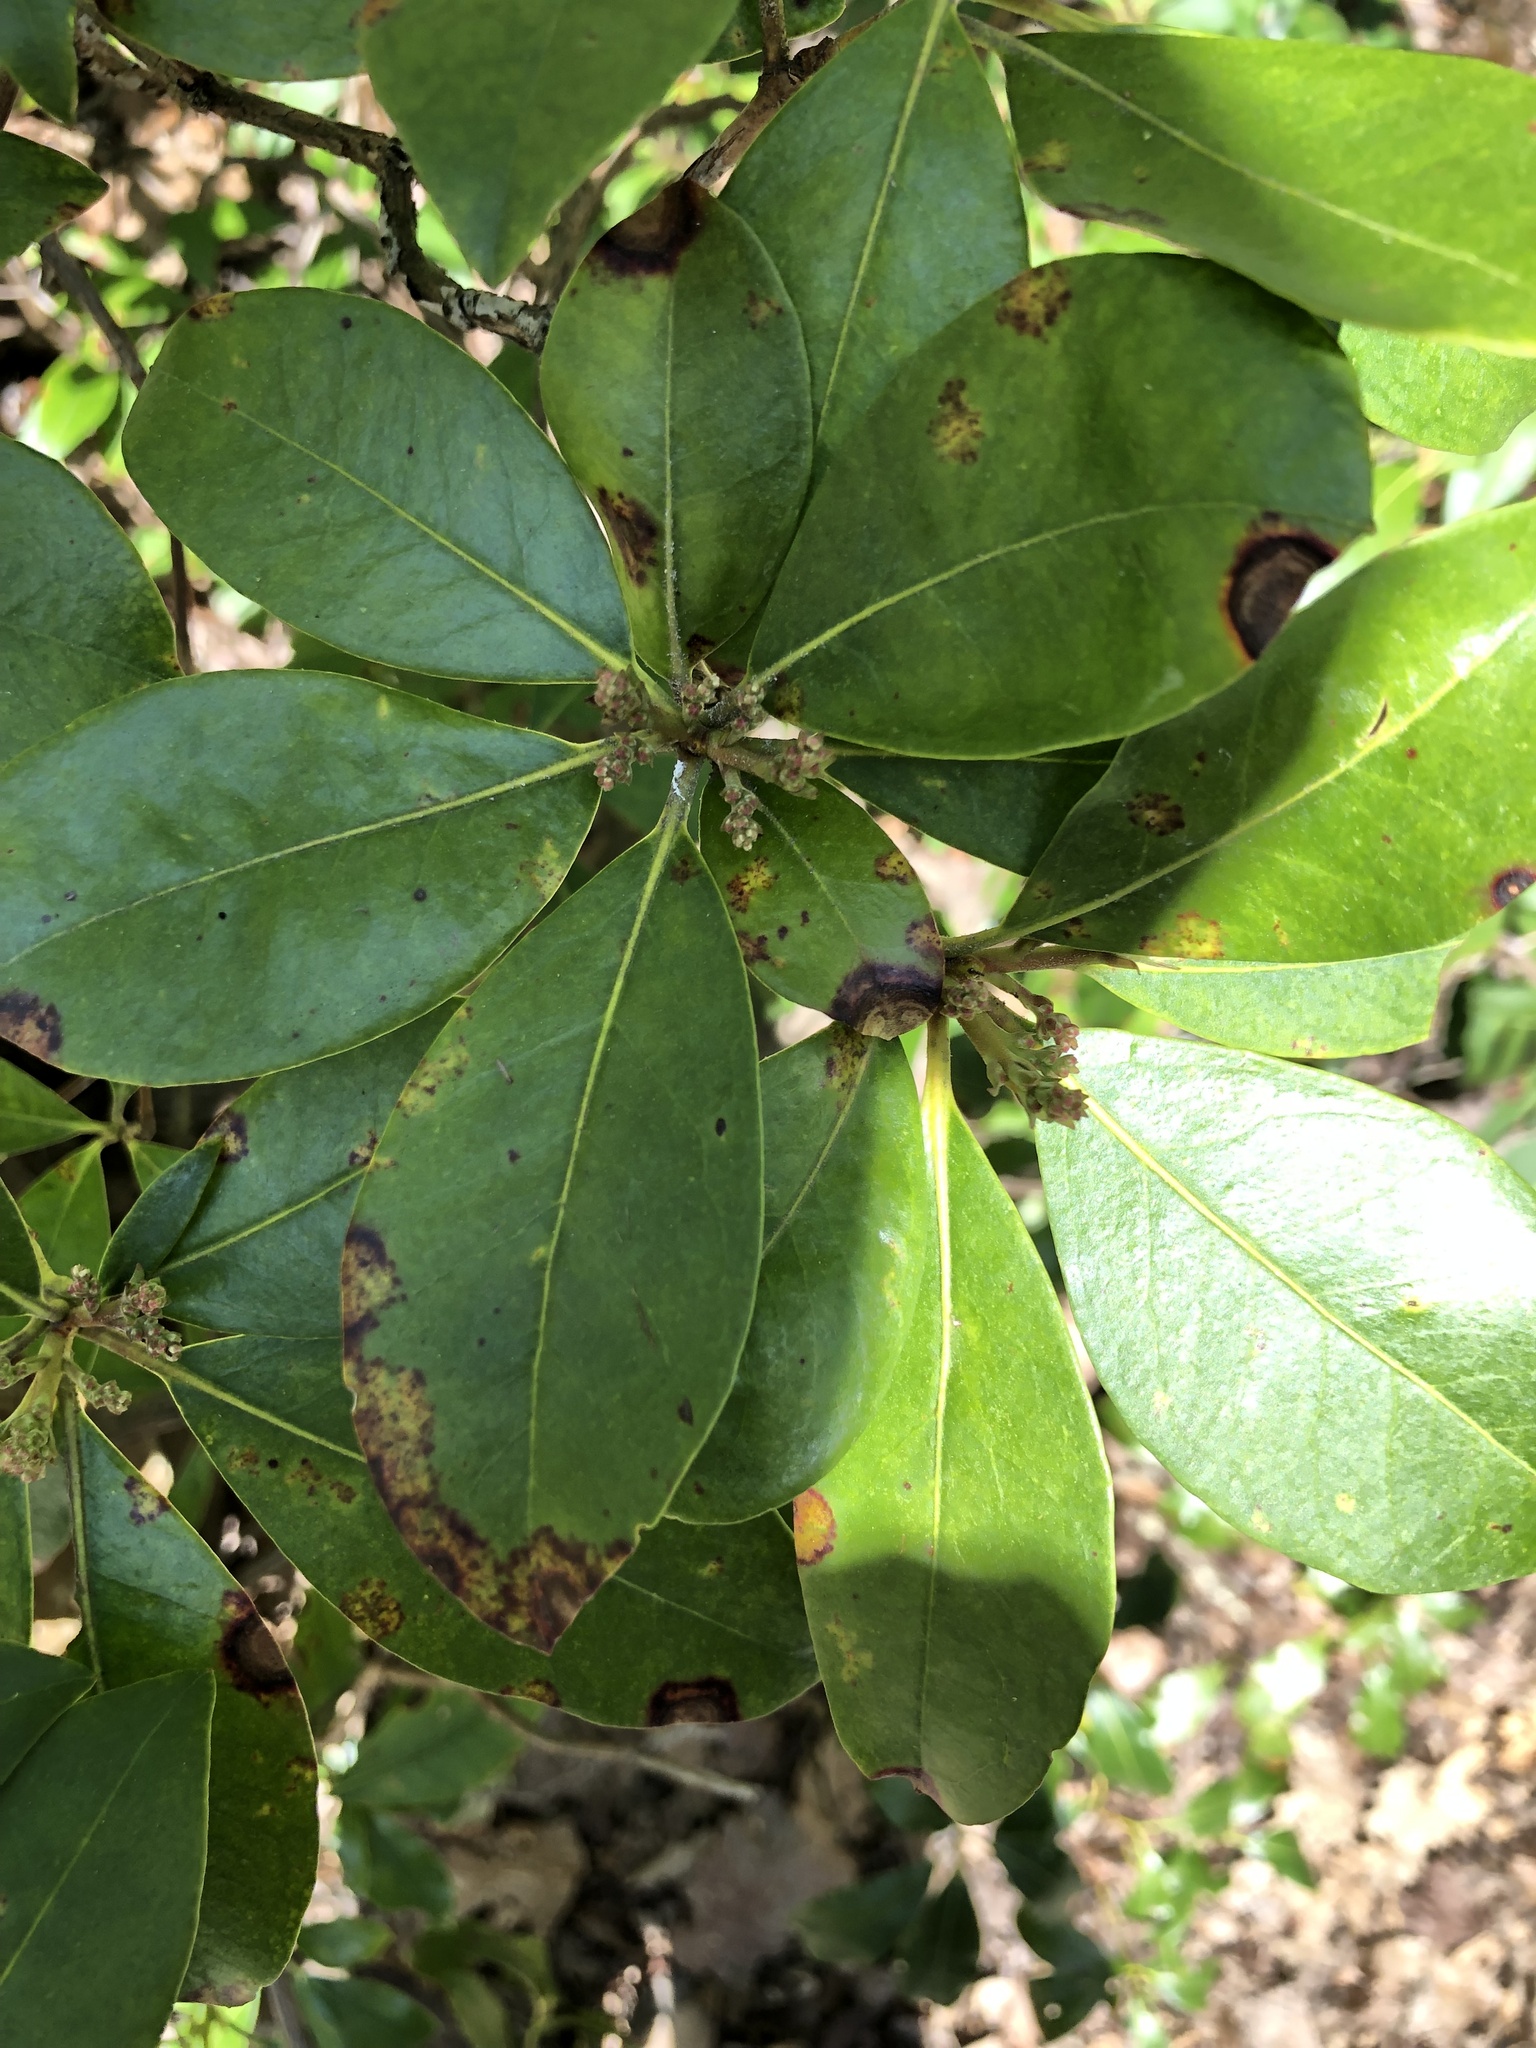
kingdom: Plantae
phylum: Tracheophyta
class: Magnoliopsida
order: Ericales
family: Ericaceae
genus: Kalmia
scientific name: Kalmia latifolia
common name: Mountain-laurel
